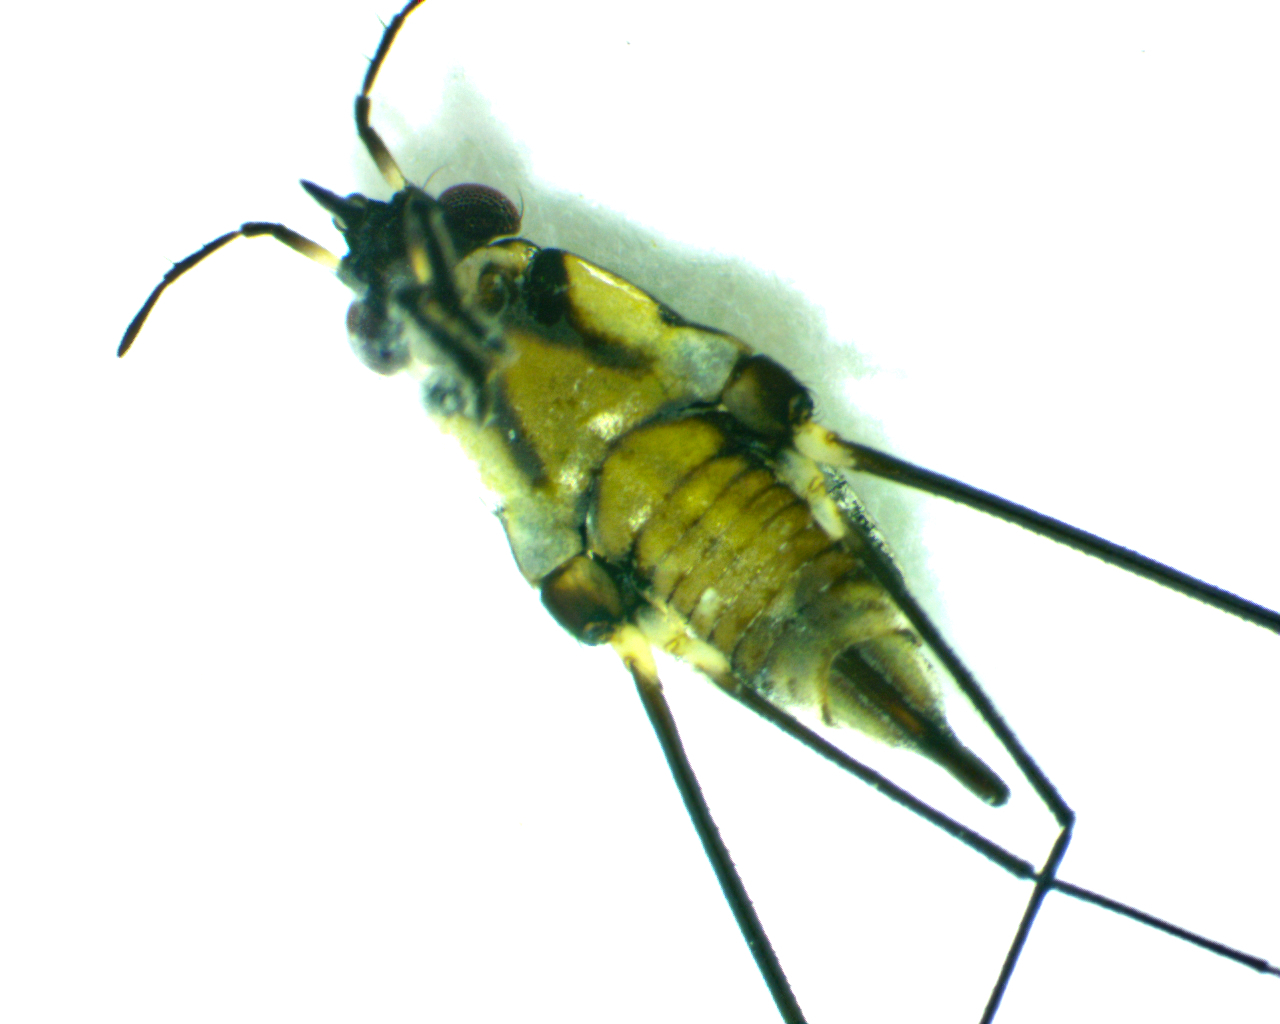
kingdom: Animalia
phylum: Arthropoda
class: Insecta
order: Hemiptera
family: Gerridae
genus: Rheumatobates
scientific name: Rheumatobates
